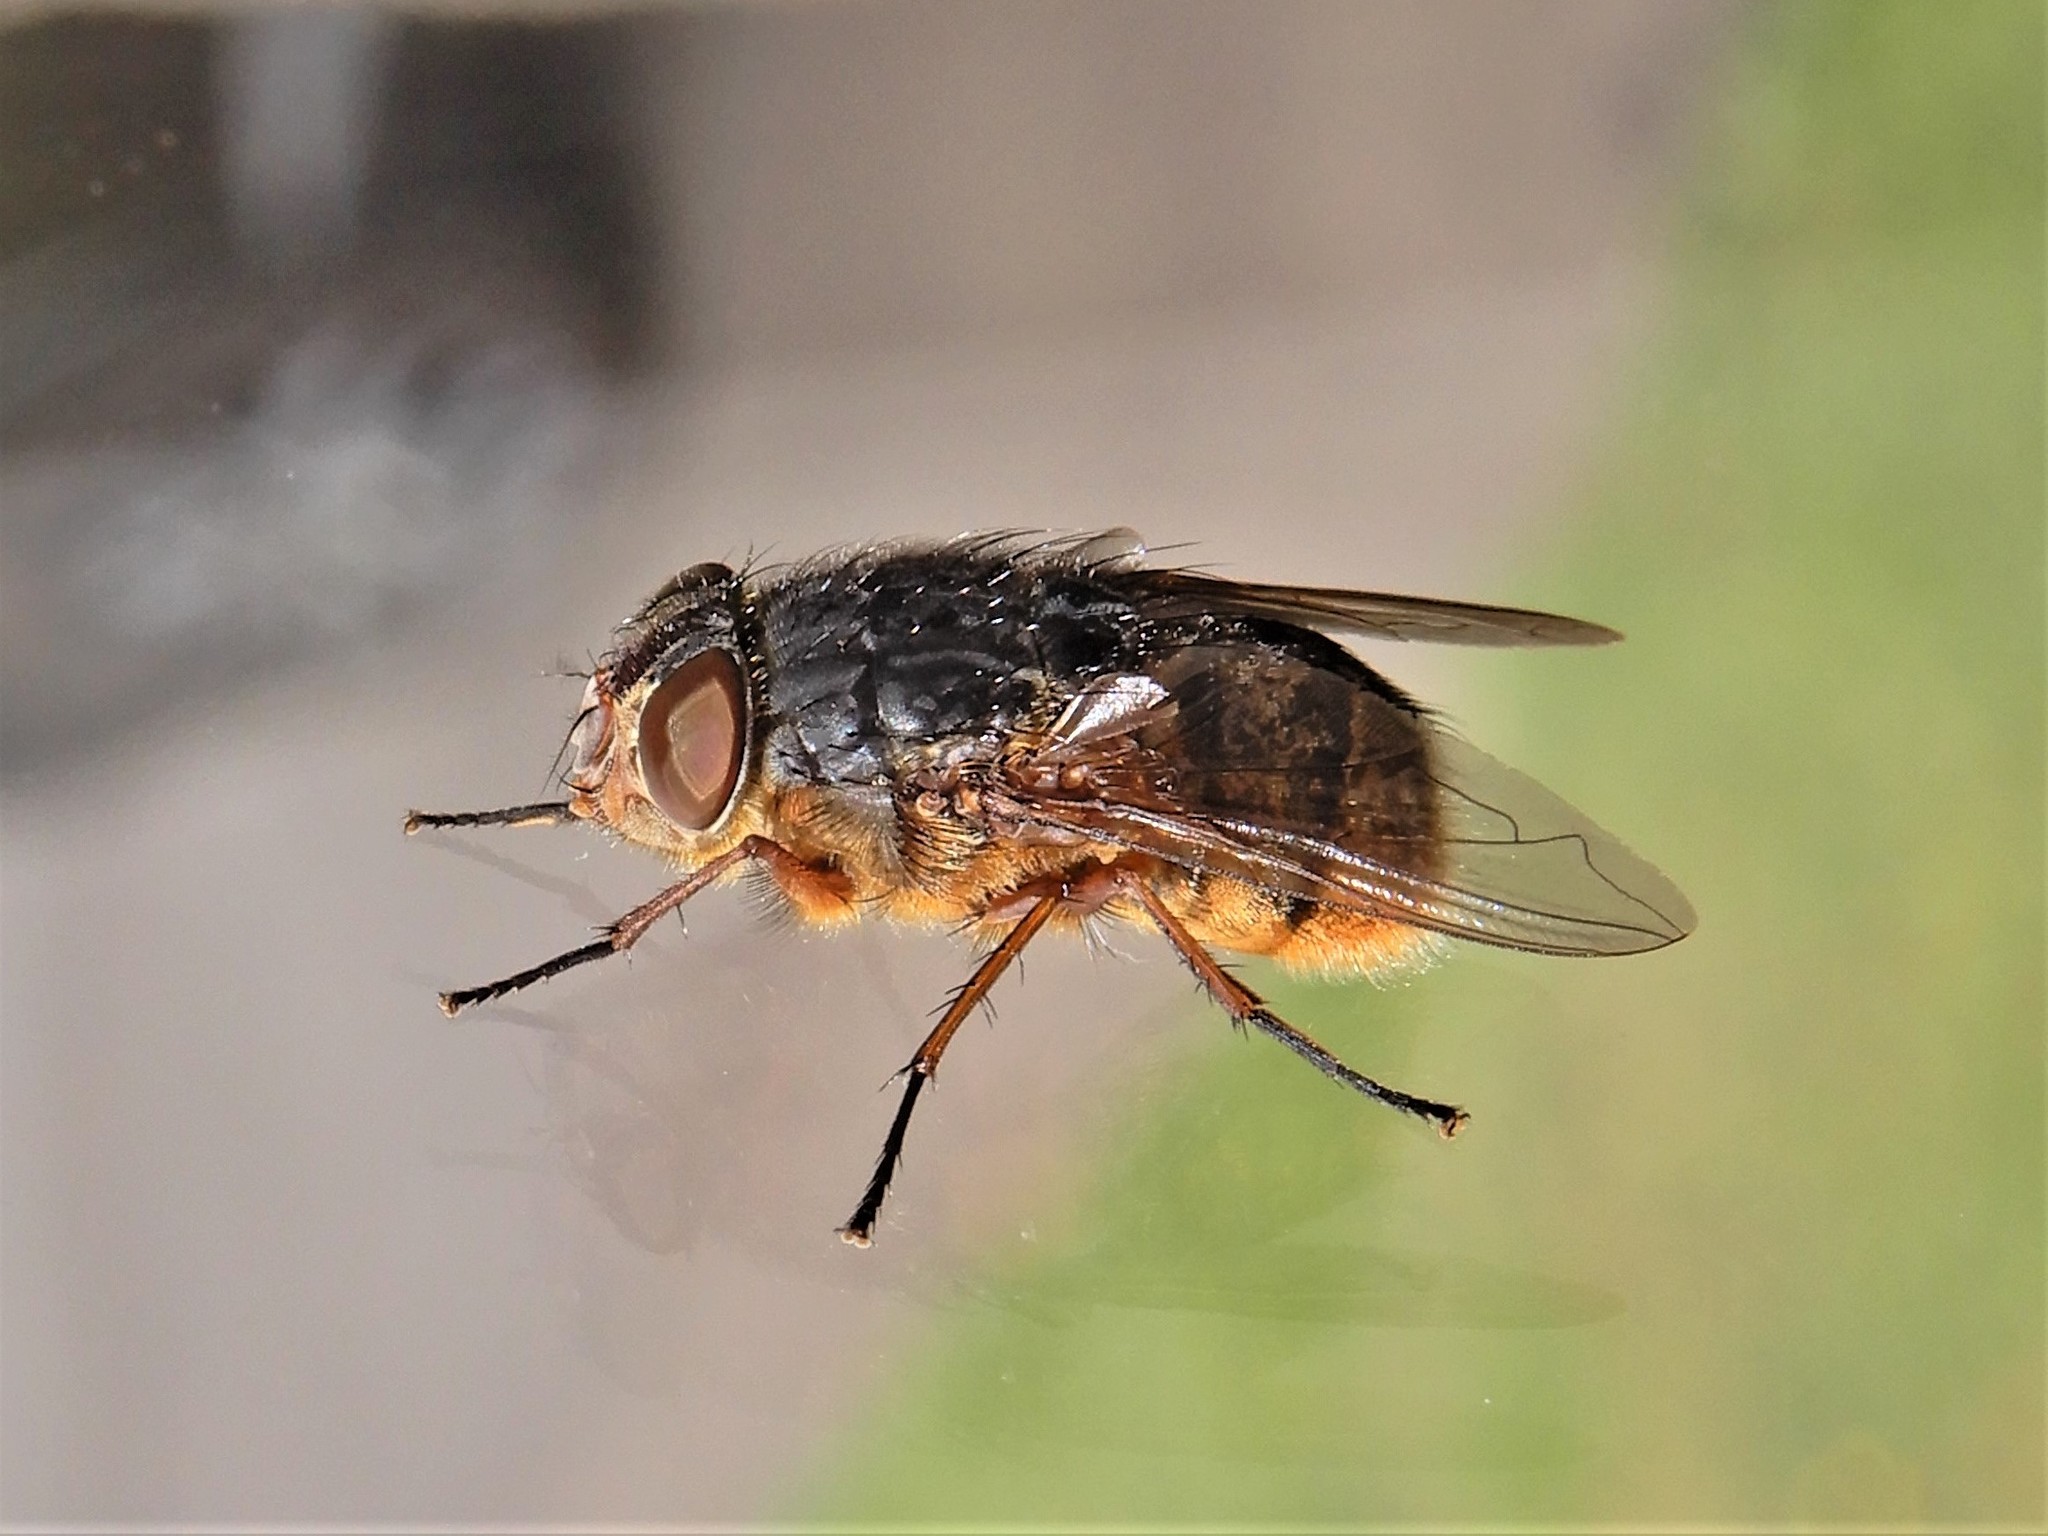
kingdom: Animalia
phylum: Arthropoda
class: Insecta
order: Diptera
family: Calliphoridae
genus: Calliphora
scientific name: Calliphora stygia
